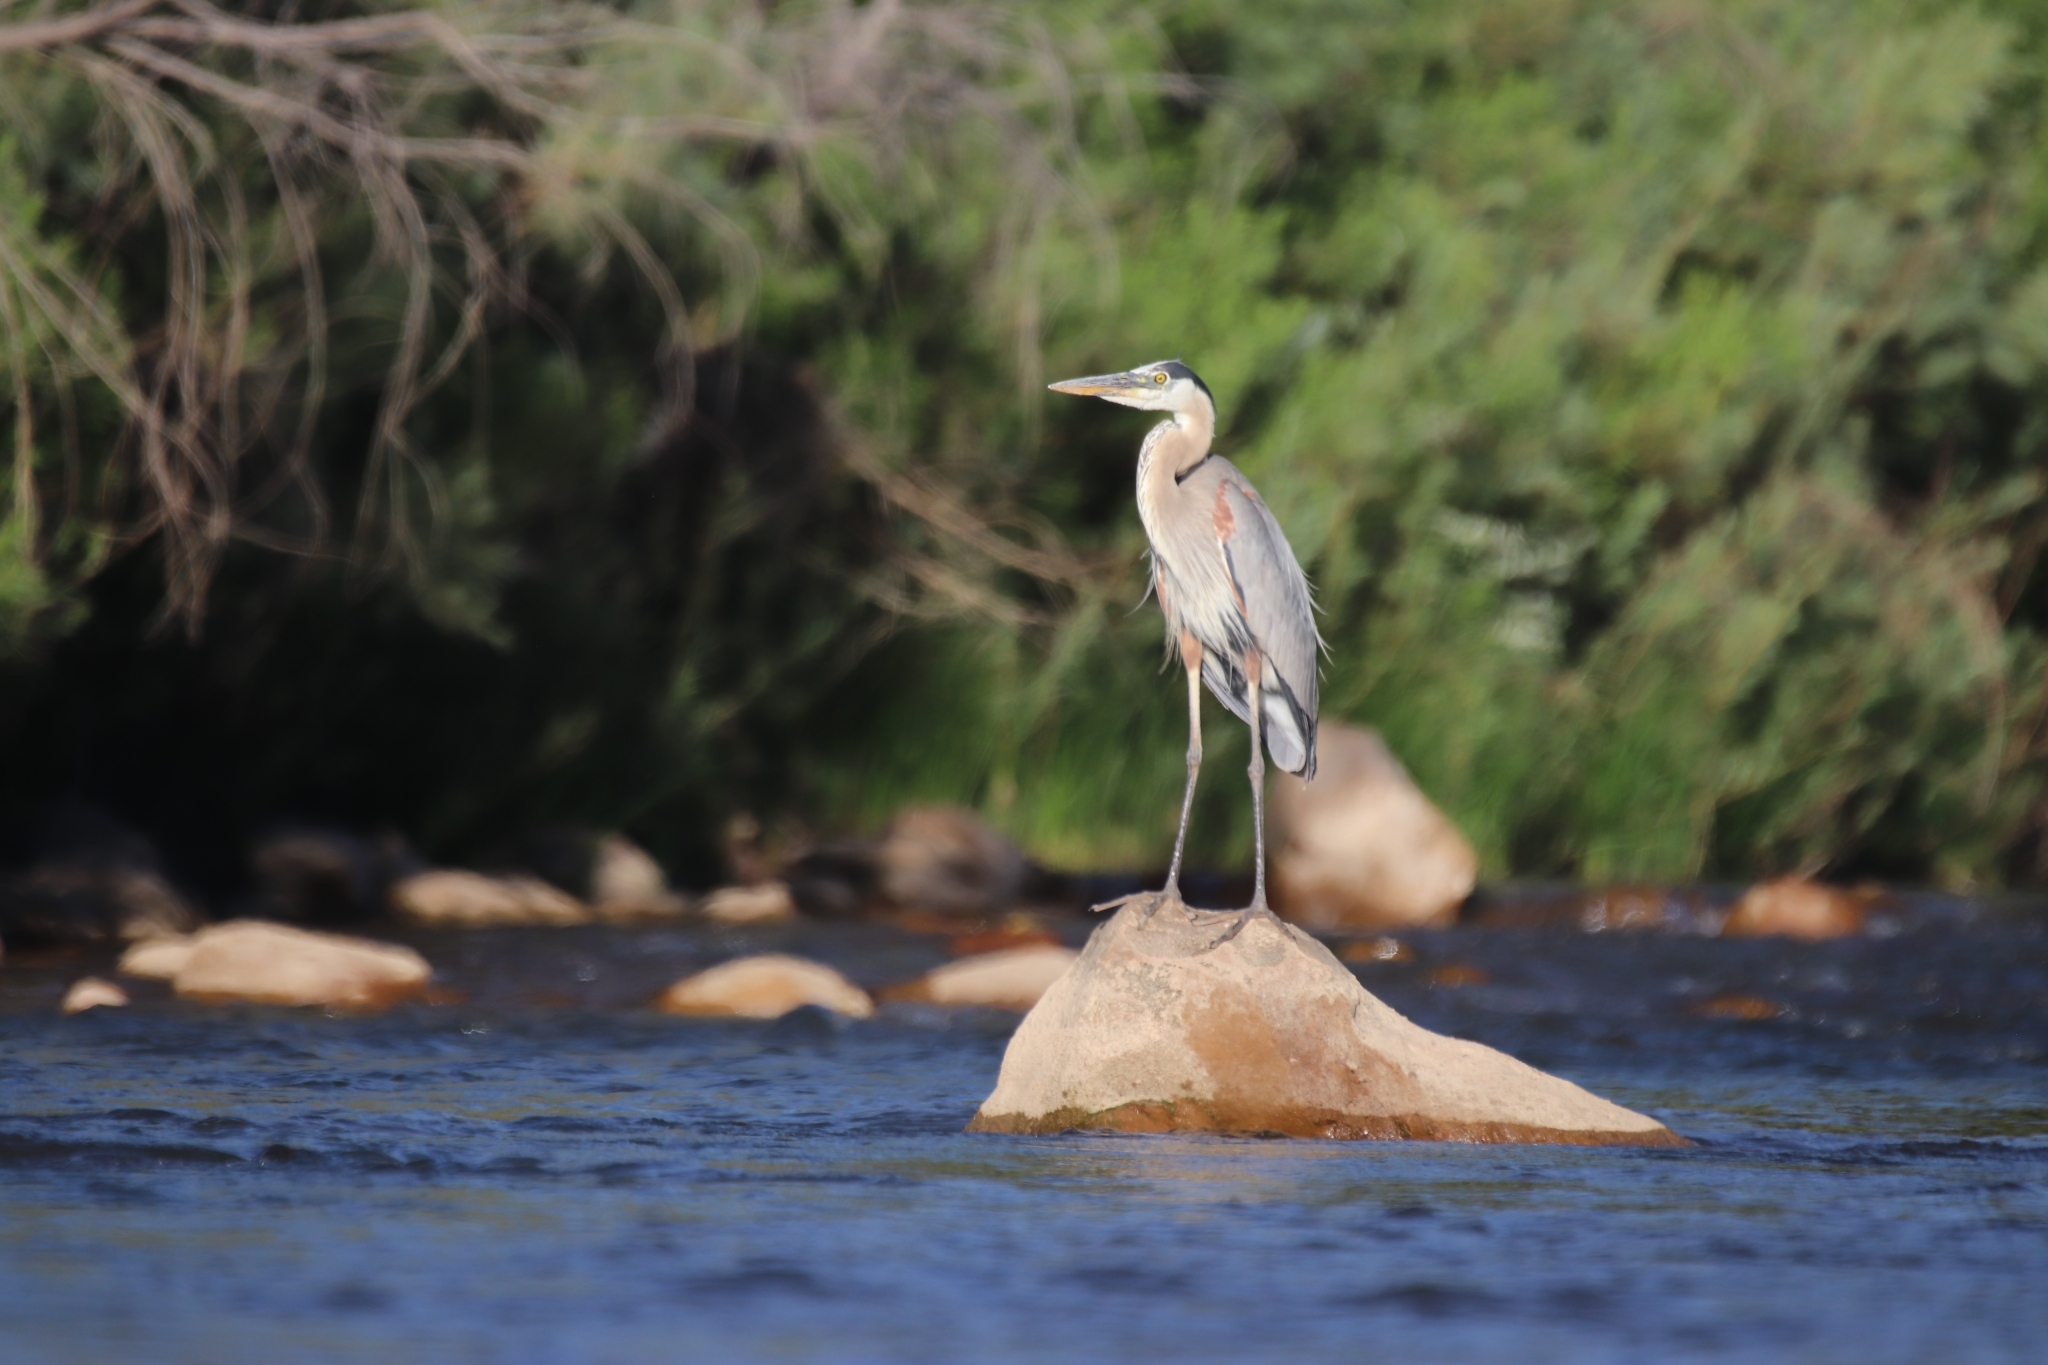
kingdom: Animalia
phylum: Chordata
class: Aves
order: Pelecaniformes
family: Ardeidae
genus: Ardea
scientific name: Ardea herodias
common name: Great blue heron
